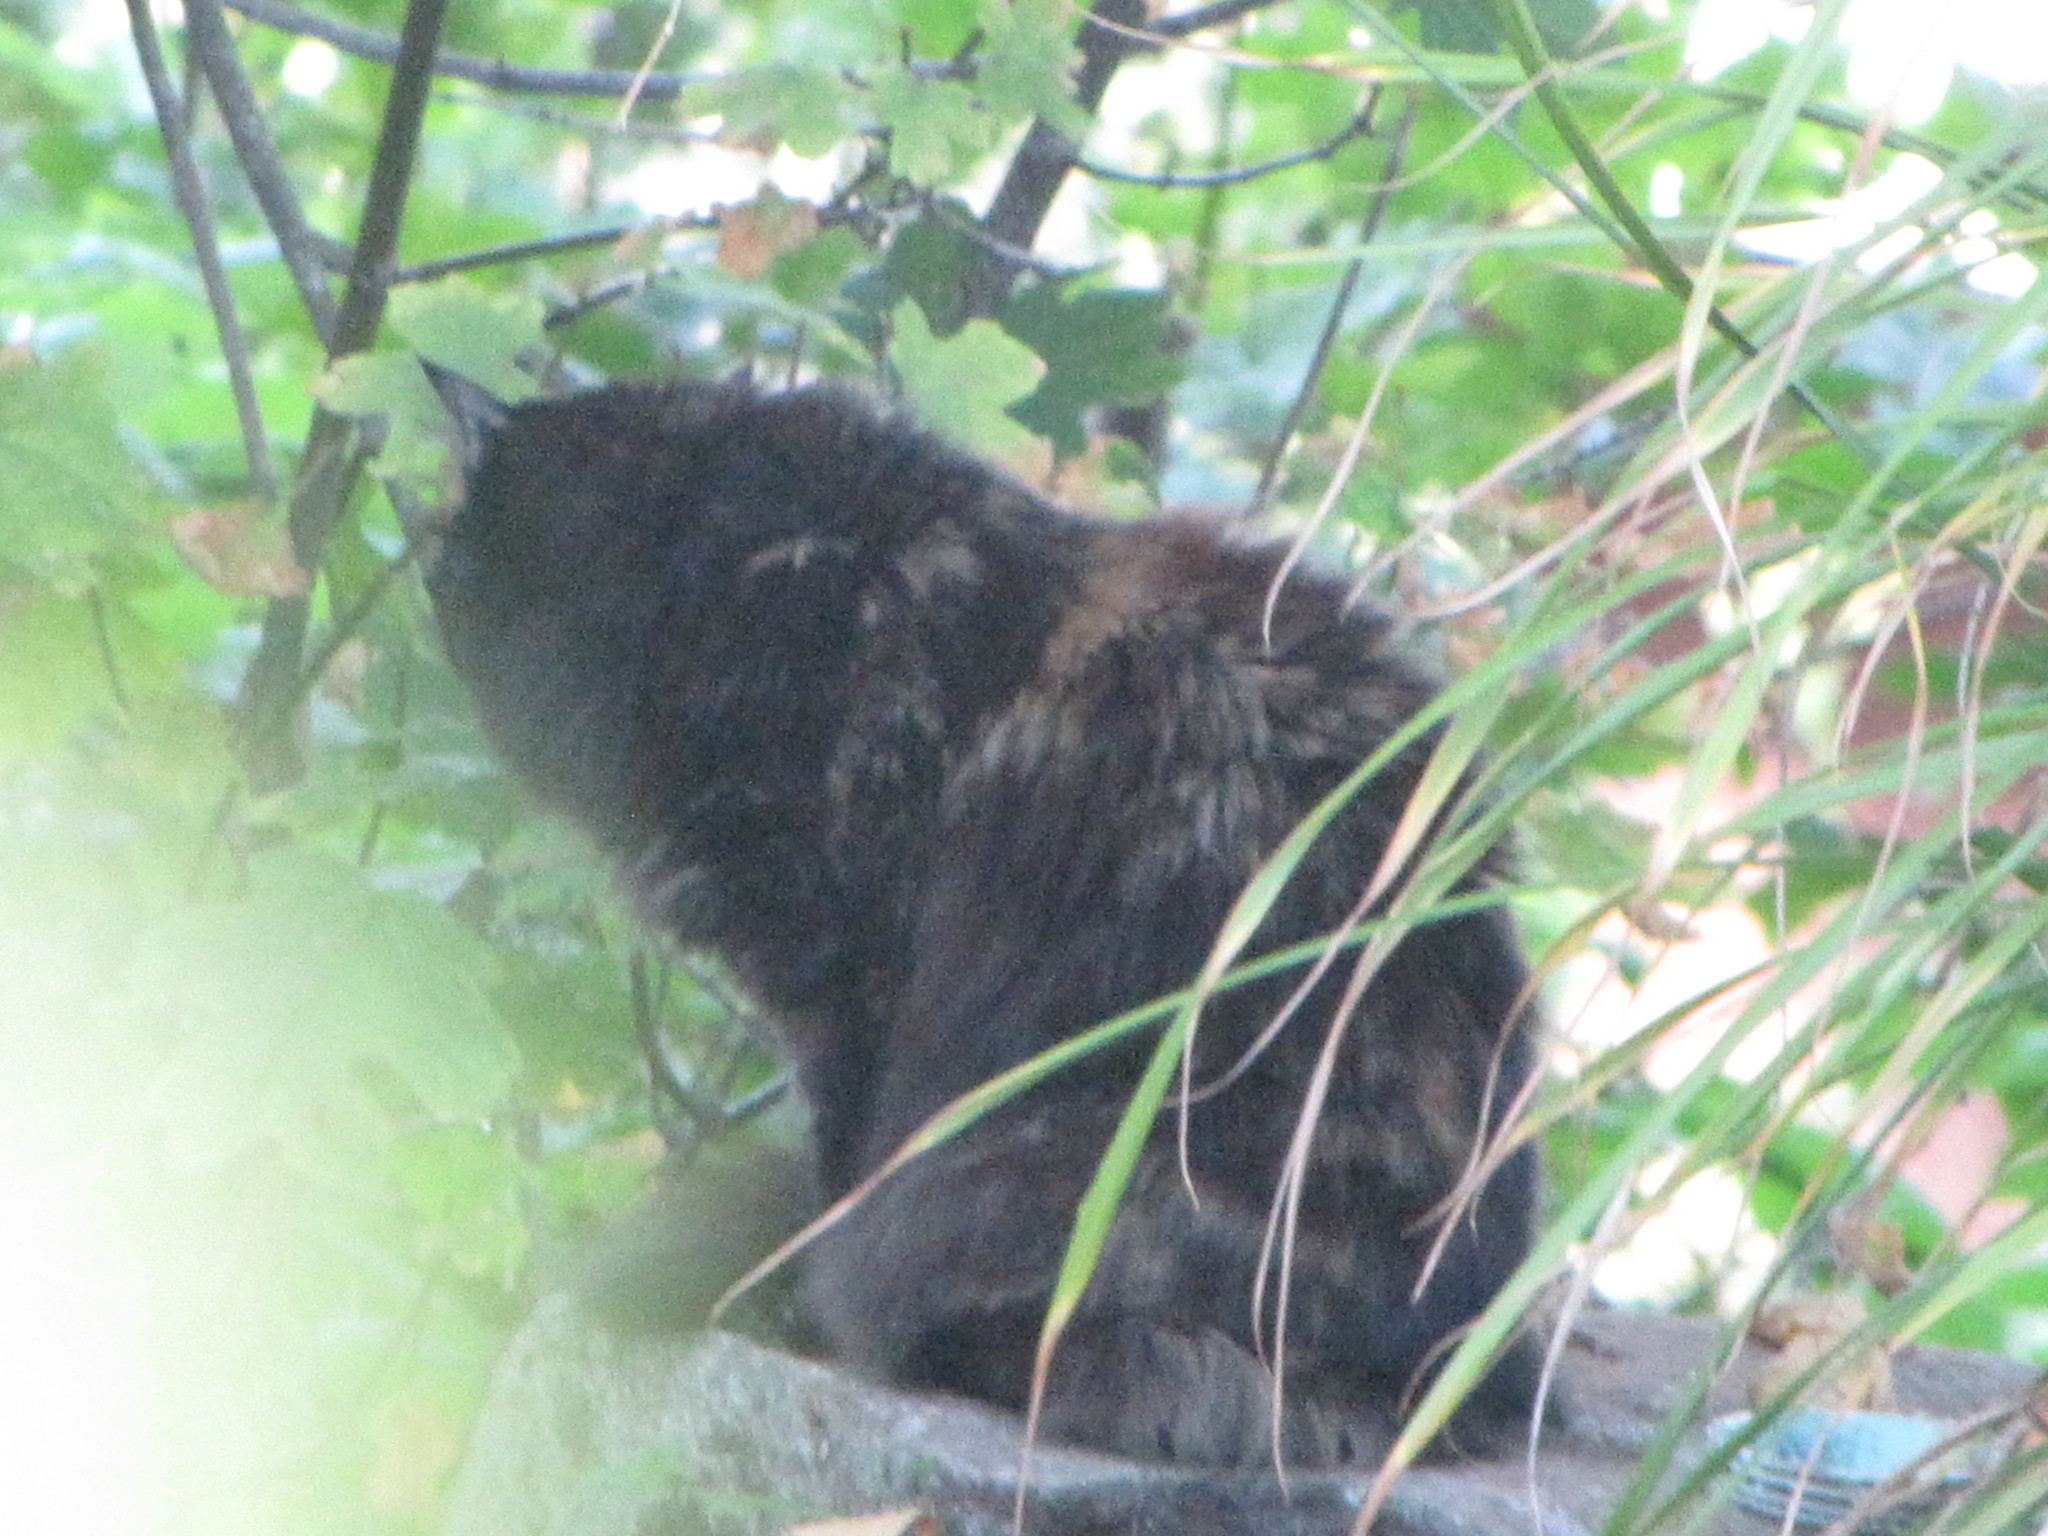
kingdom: Animalia
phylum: Chordata
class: Mammalia
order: Carnivora
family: Felidae
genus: Felis
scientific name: Felis catus
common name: Domestic cat
